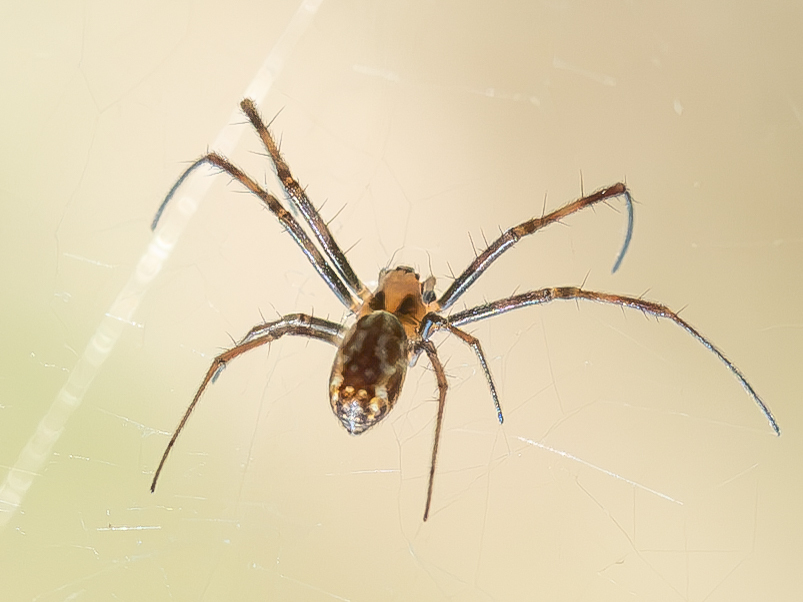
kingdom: Animalia
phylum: Arthropoda
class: Arachnida
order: Araneae
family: Araneidae
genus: Trichonephila
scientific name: Trichonephila plumipes
